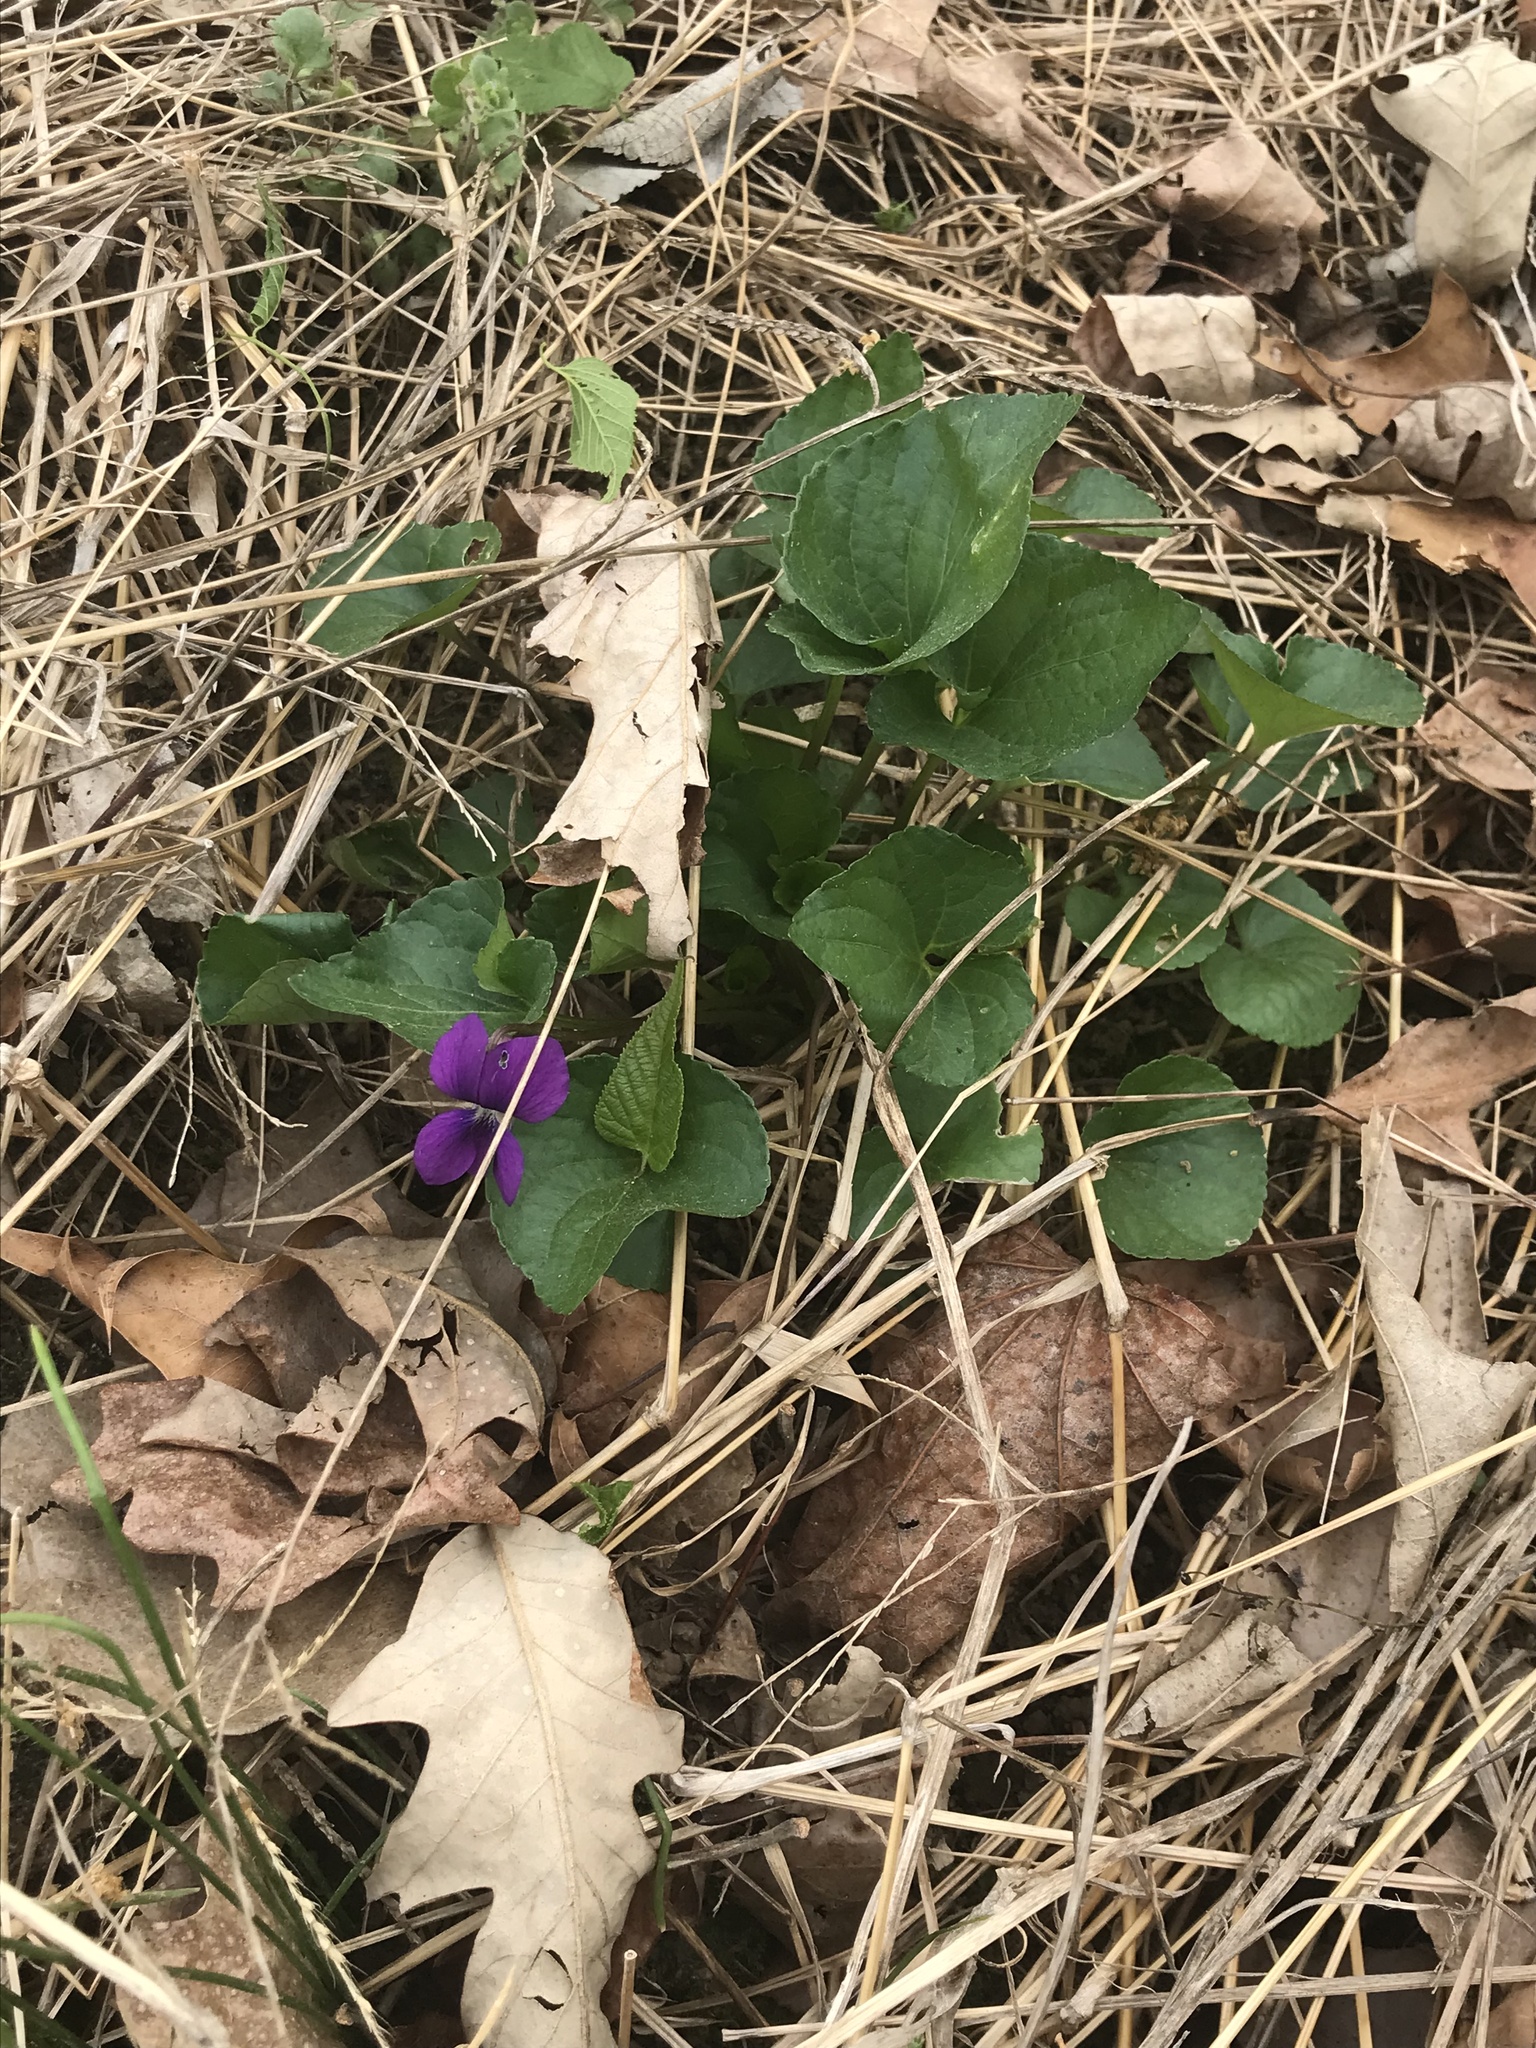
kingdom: Plantae
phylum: Tracheophyta
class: Magnoliopsida
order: Malpighiales
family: Violaceae
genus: Viola
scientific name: Viola sororia
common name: Dooryard violet
